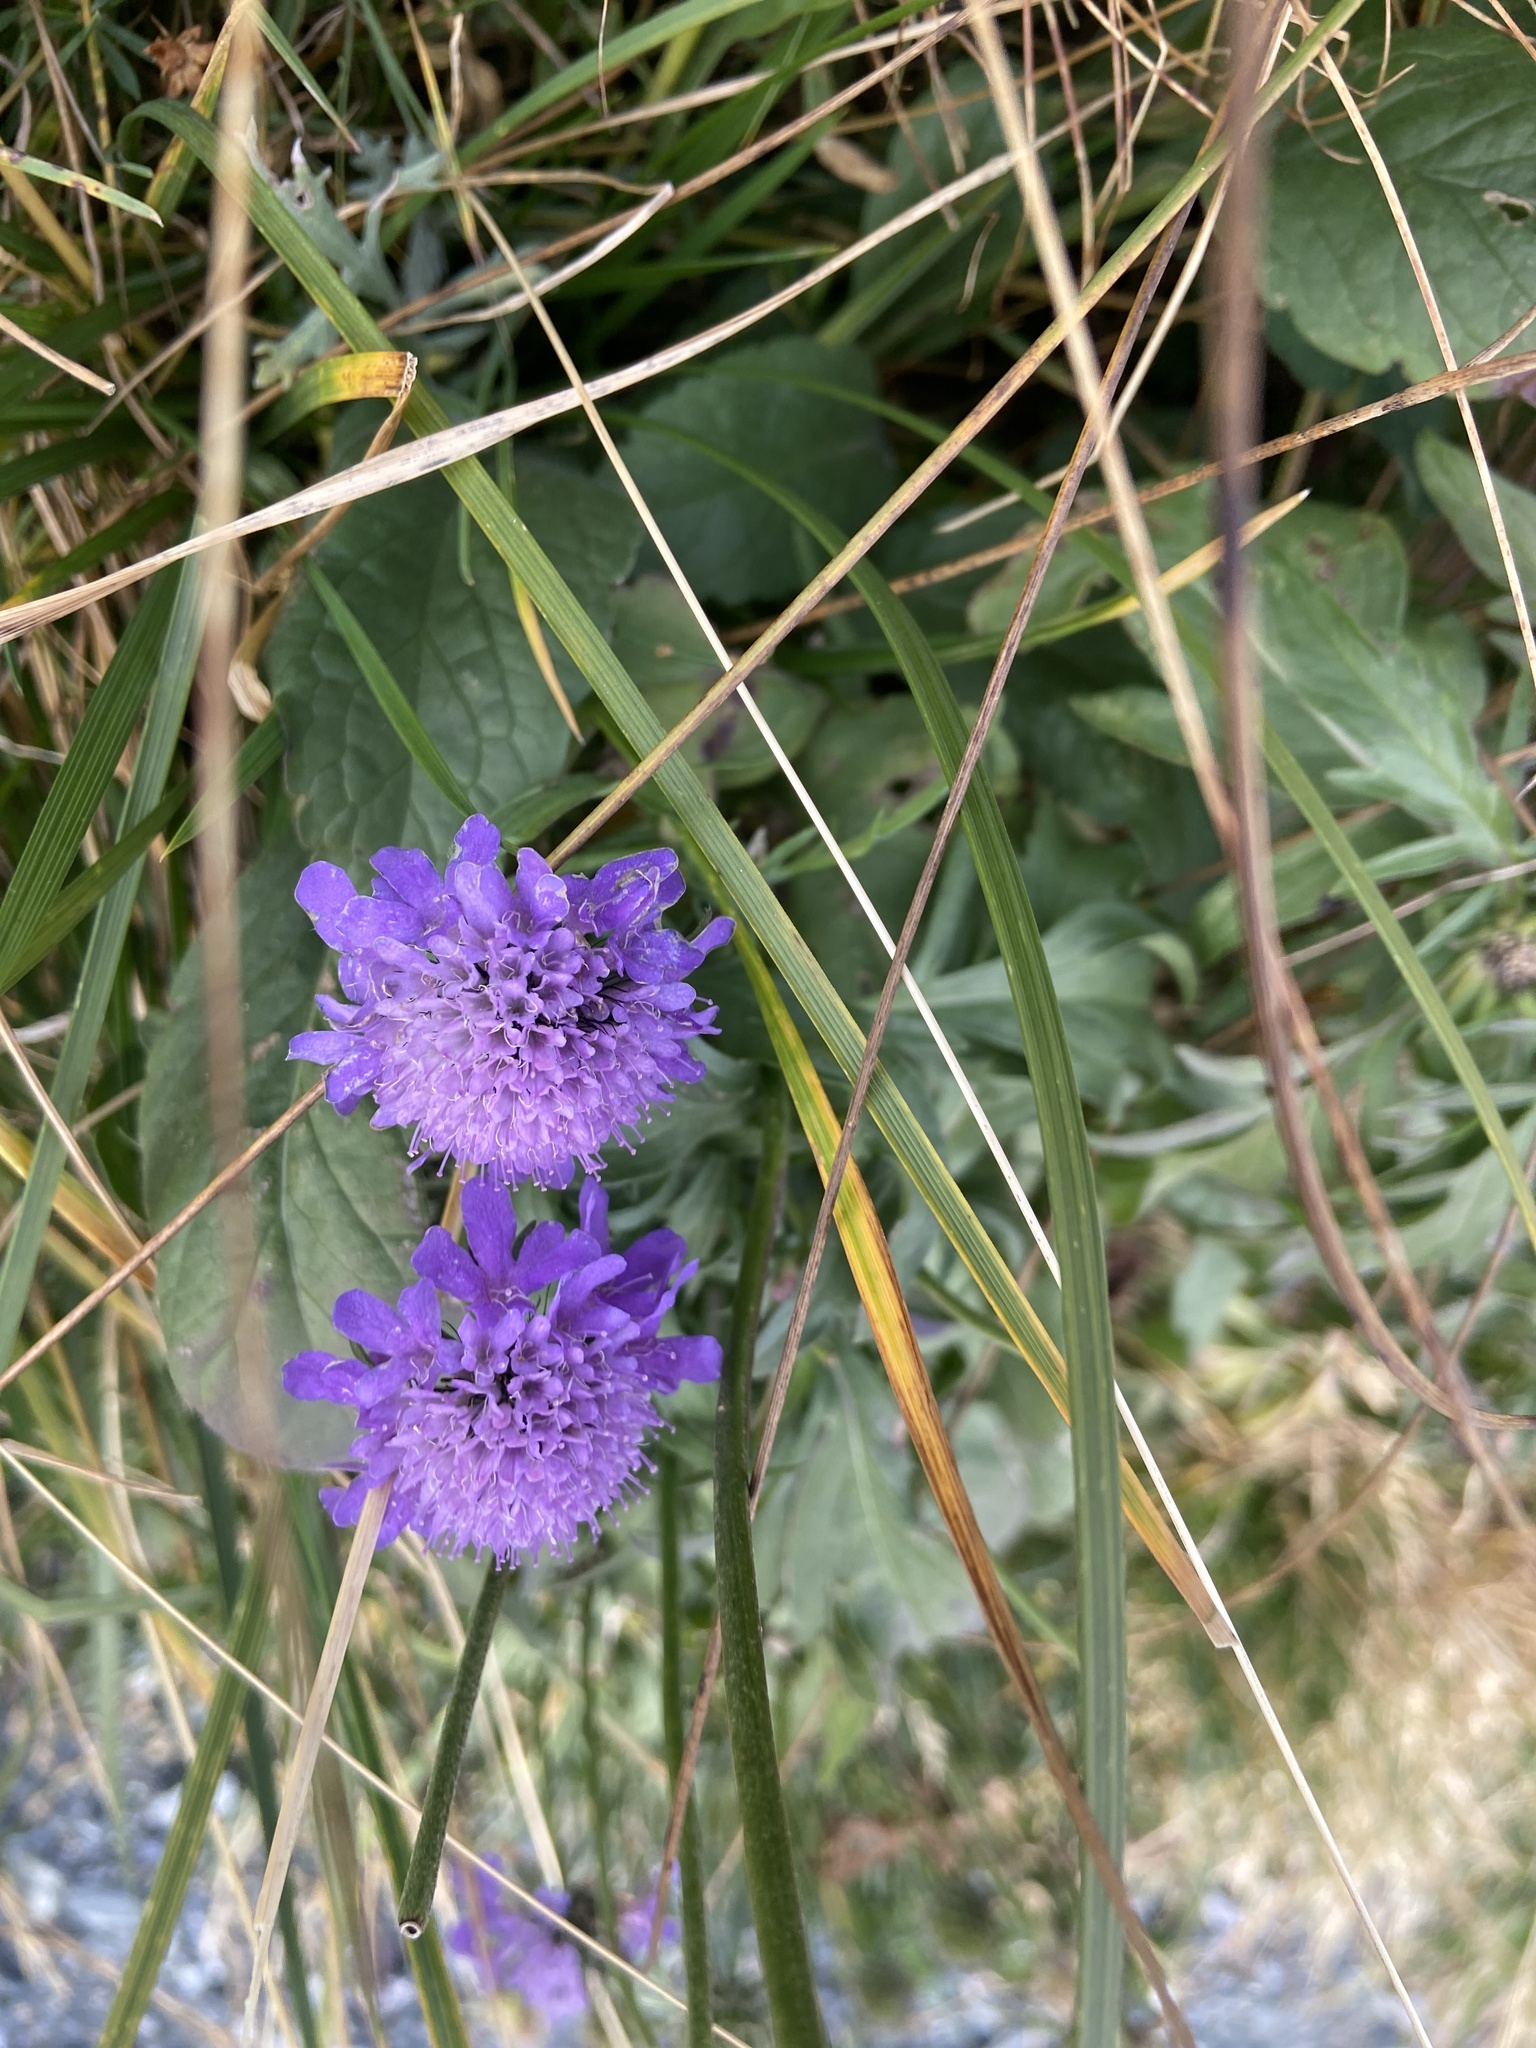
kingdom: Plantae
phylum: Tracheophyta
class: Magnoliopsida
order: Dipsacales
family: Caprifoliaceae
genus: Scabiosa
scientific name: Scabiosa lucida
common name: Shining scabious
